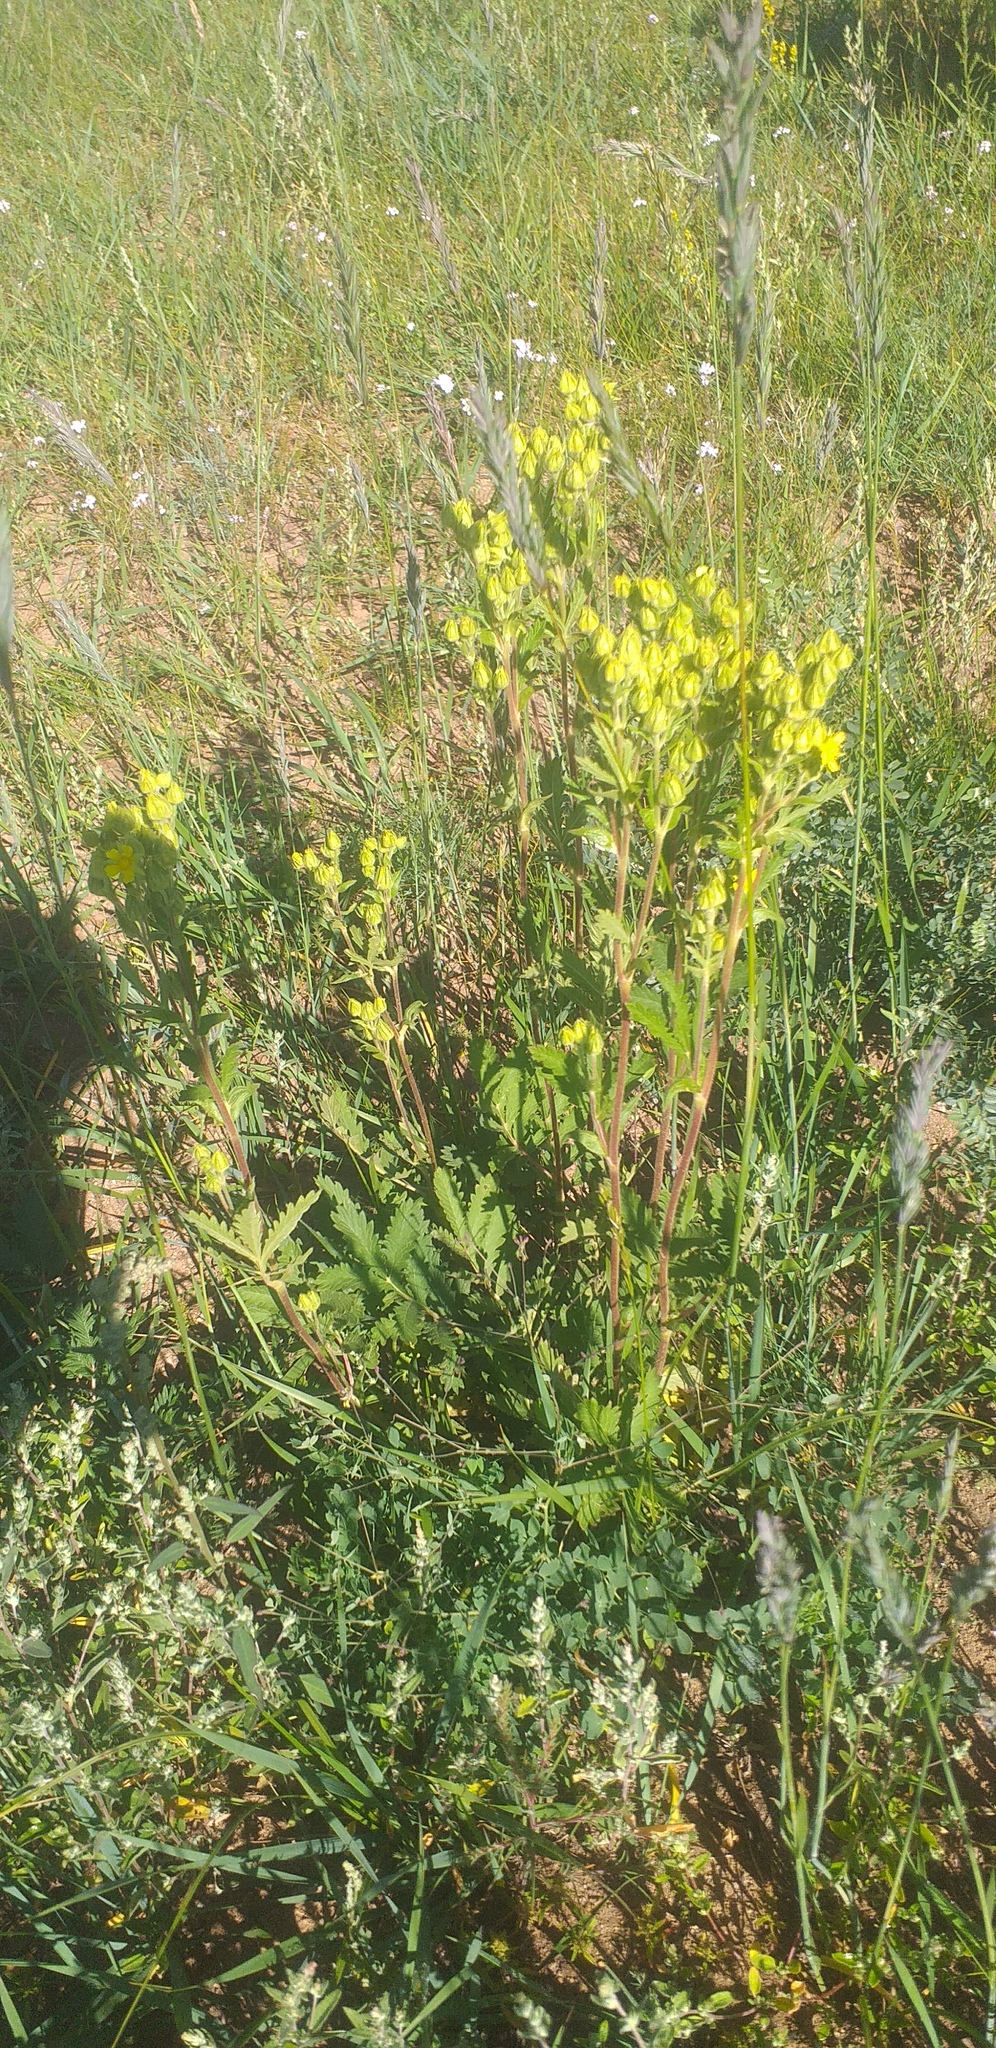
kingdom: Plantae
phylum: Tracheophyta
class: Magnoliopsida
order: Rosales
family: Rosaceae
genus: Potentilla
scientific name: Potentilla tanacetifolia
